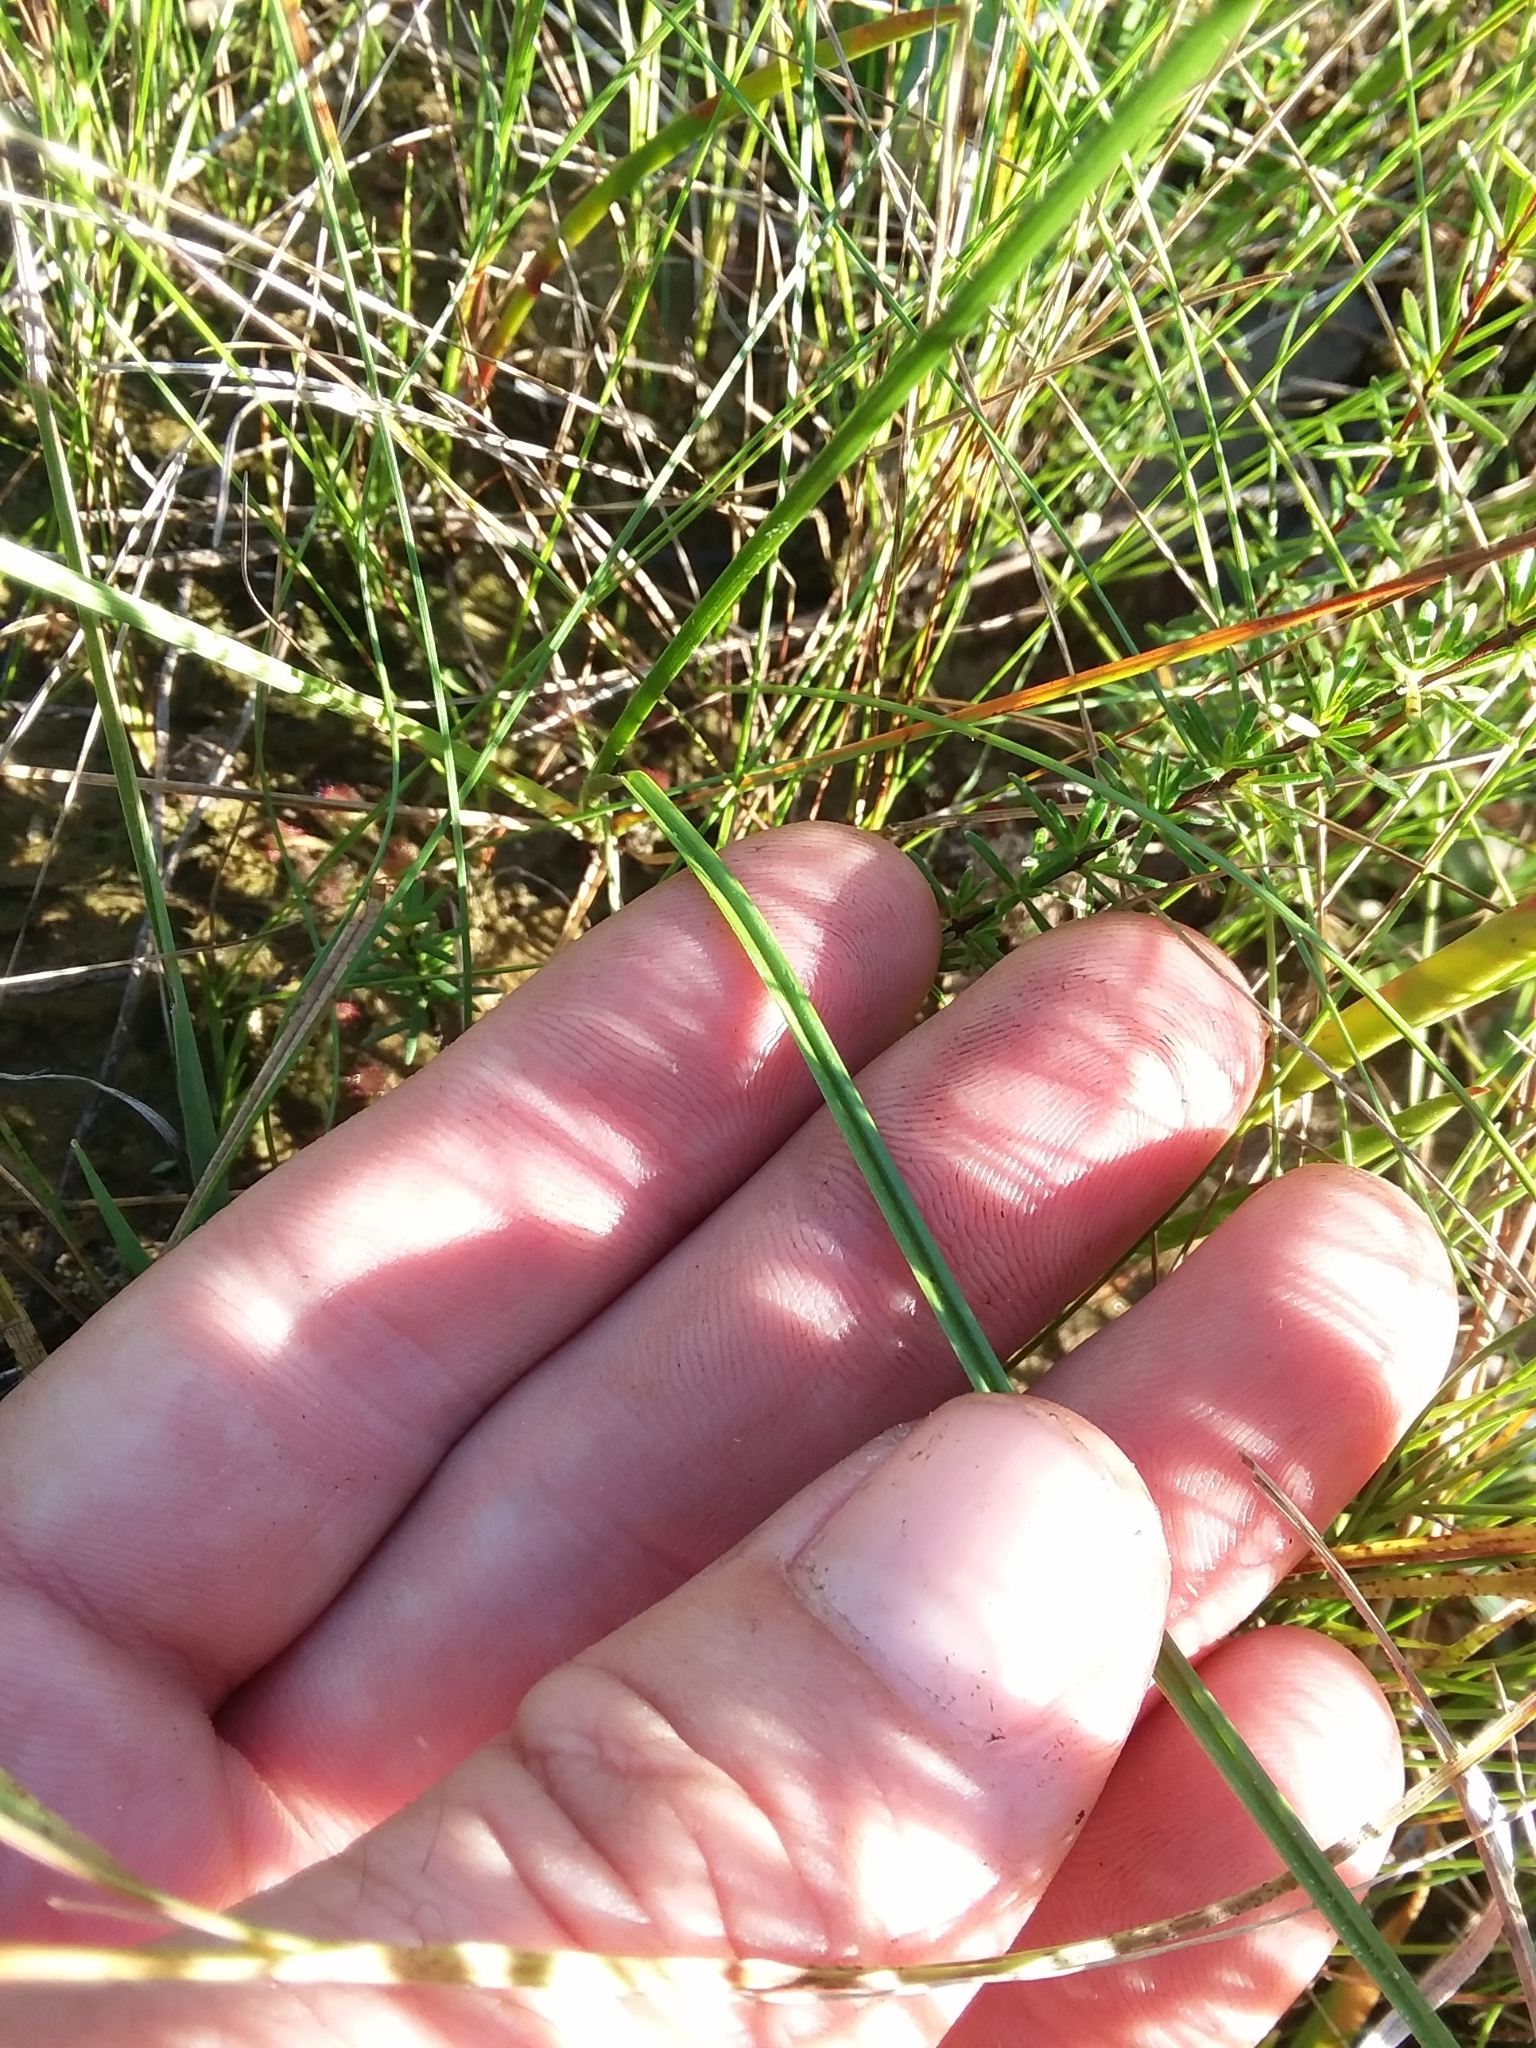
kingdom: Plantae
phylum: Tracheophyta
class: Liliopsida
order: Poales
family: Cyperaceae
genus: Rhynchospora
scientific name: Rhynchospora macra
